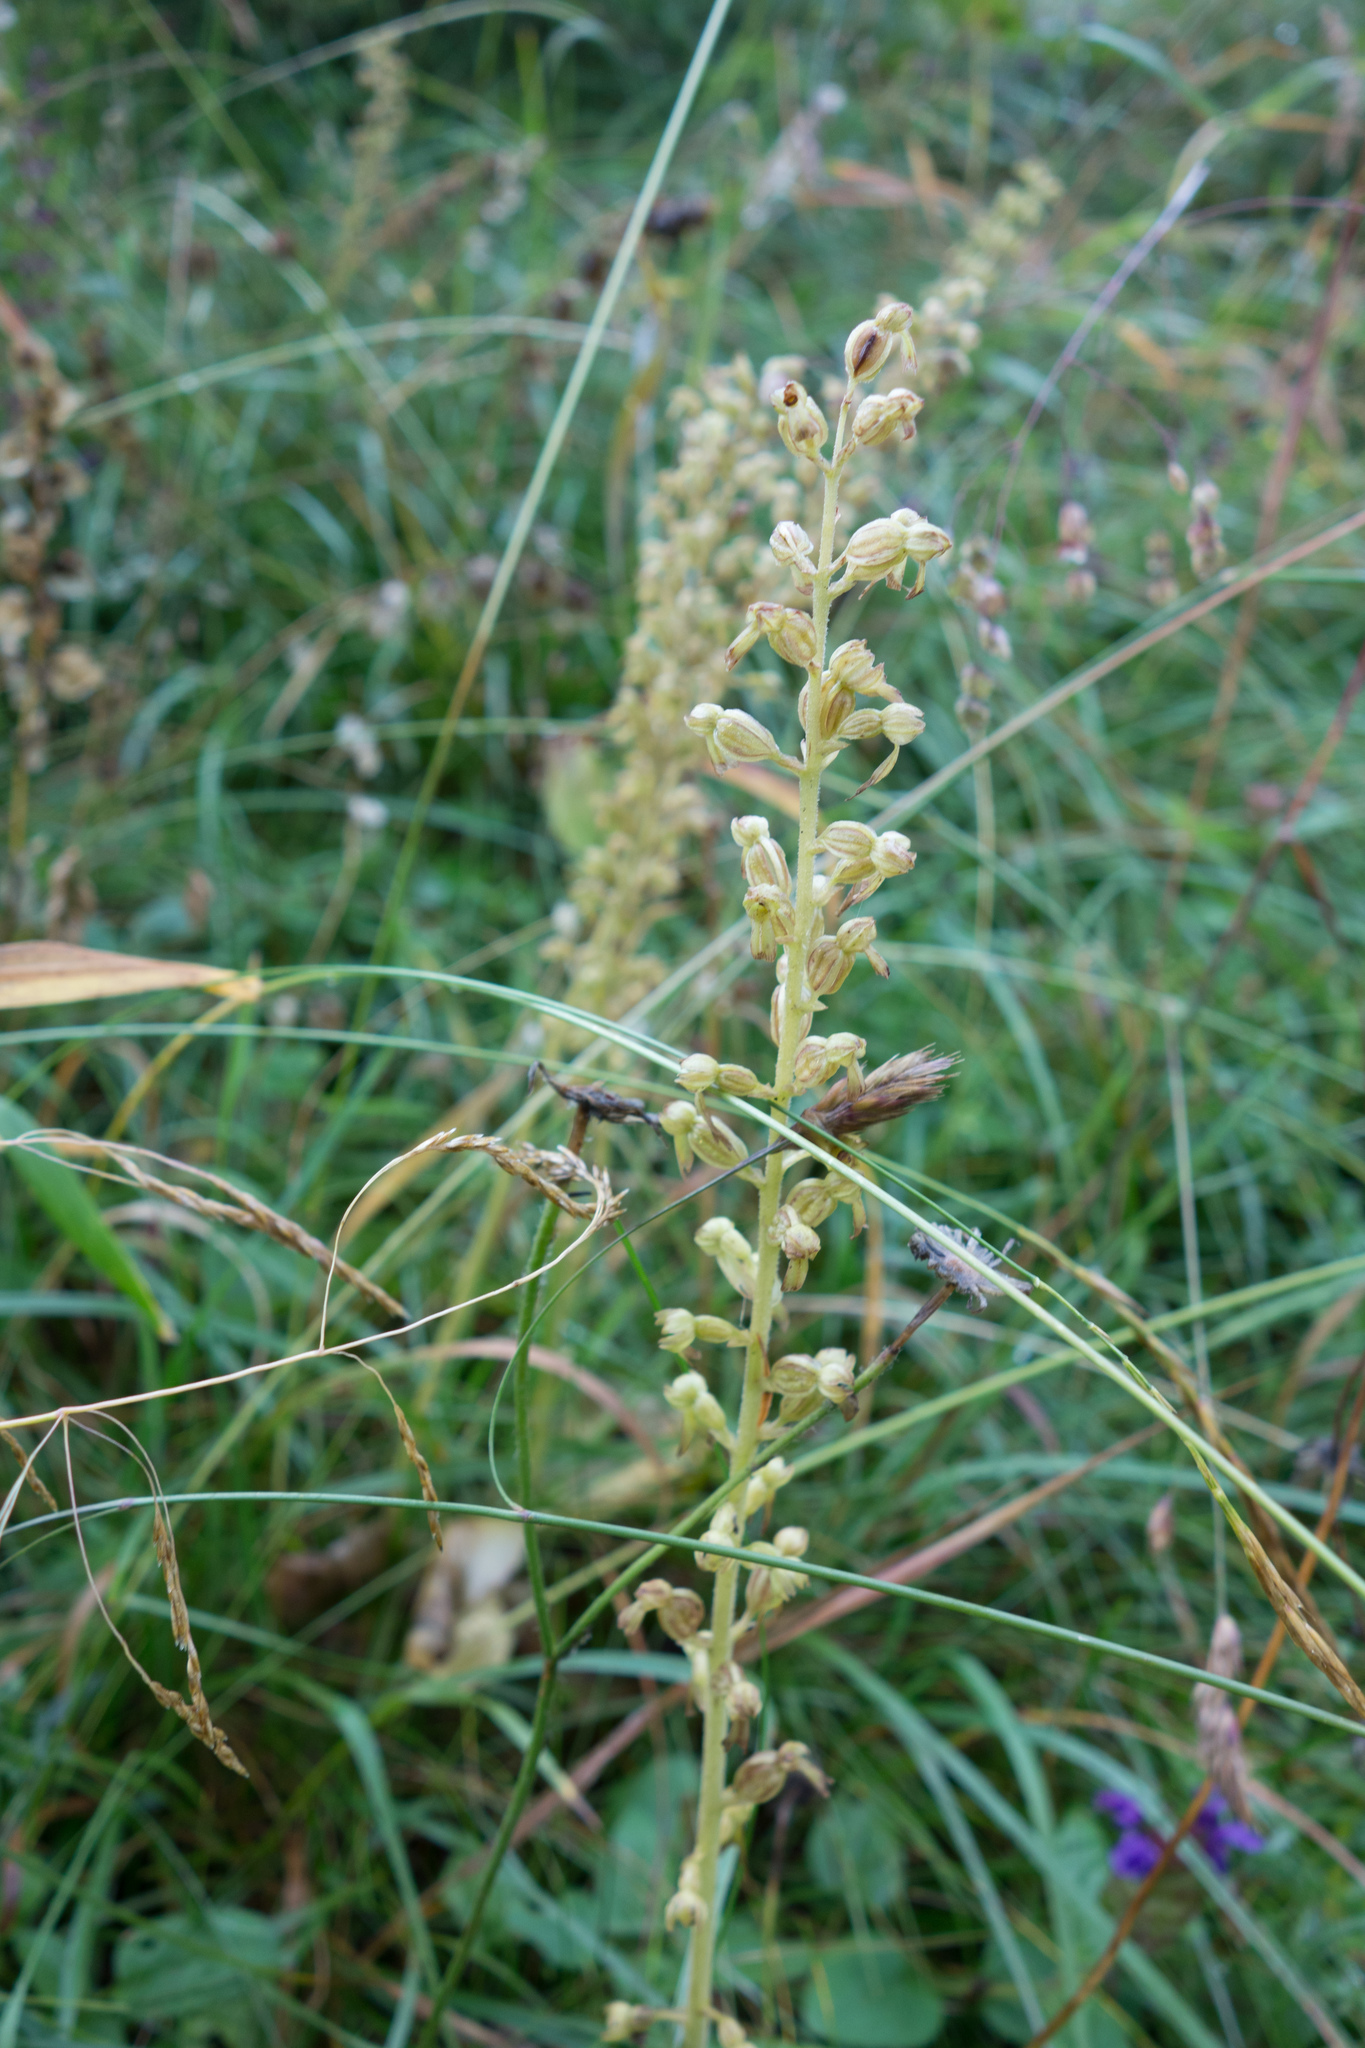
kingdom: Plantae
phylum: Tracheophyta
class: Liliopsida
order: Asparagales
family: Orchidaceae
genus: Neottia
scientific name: Neottia ovata
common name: Common twayblade
